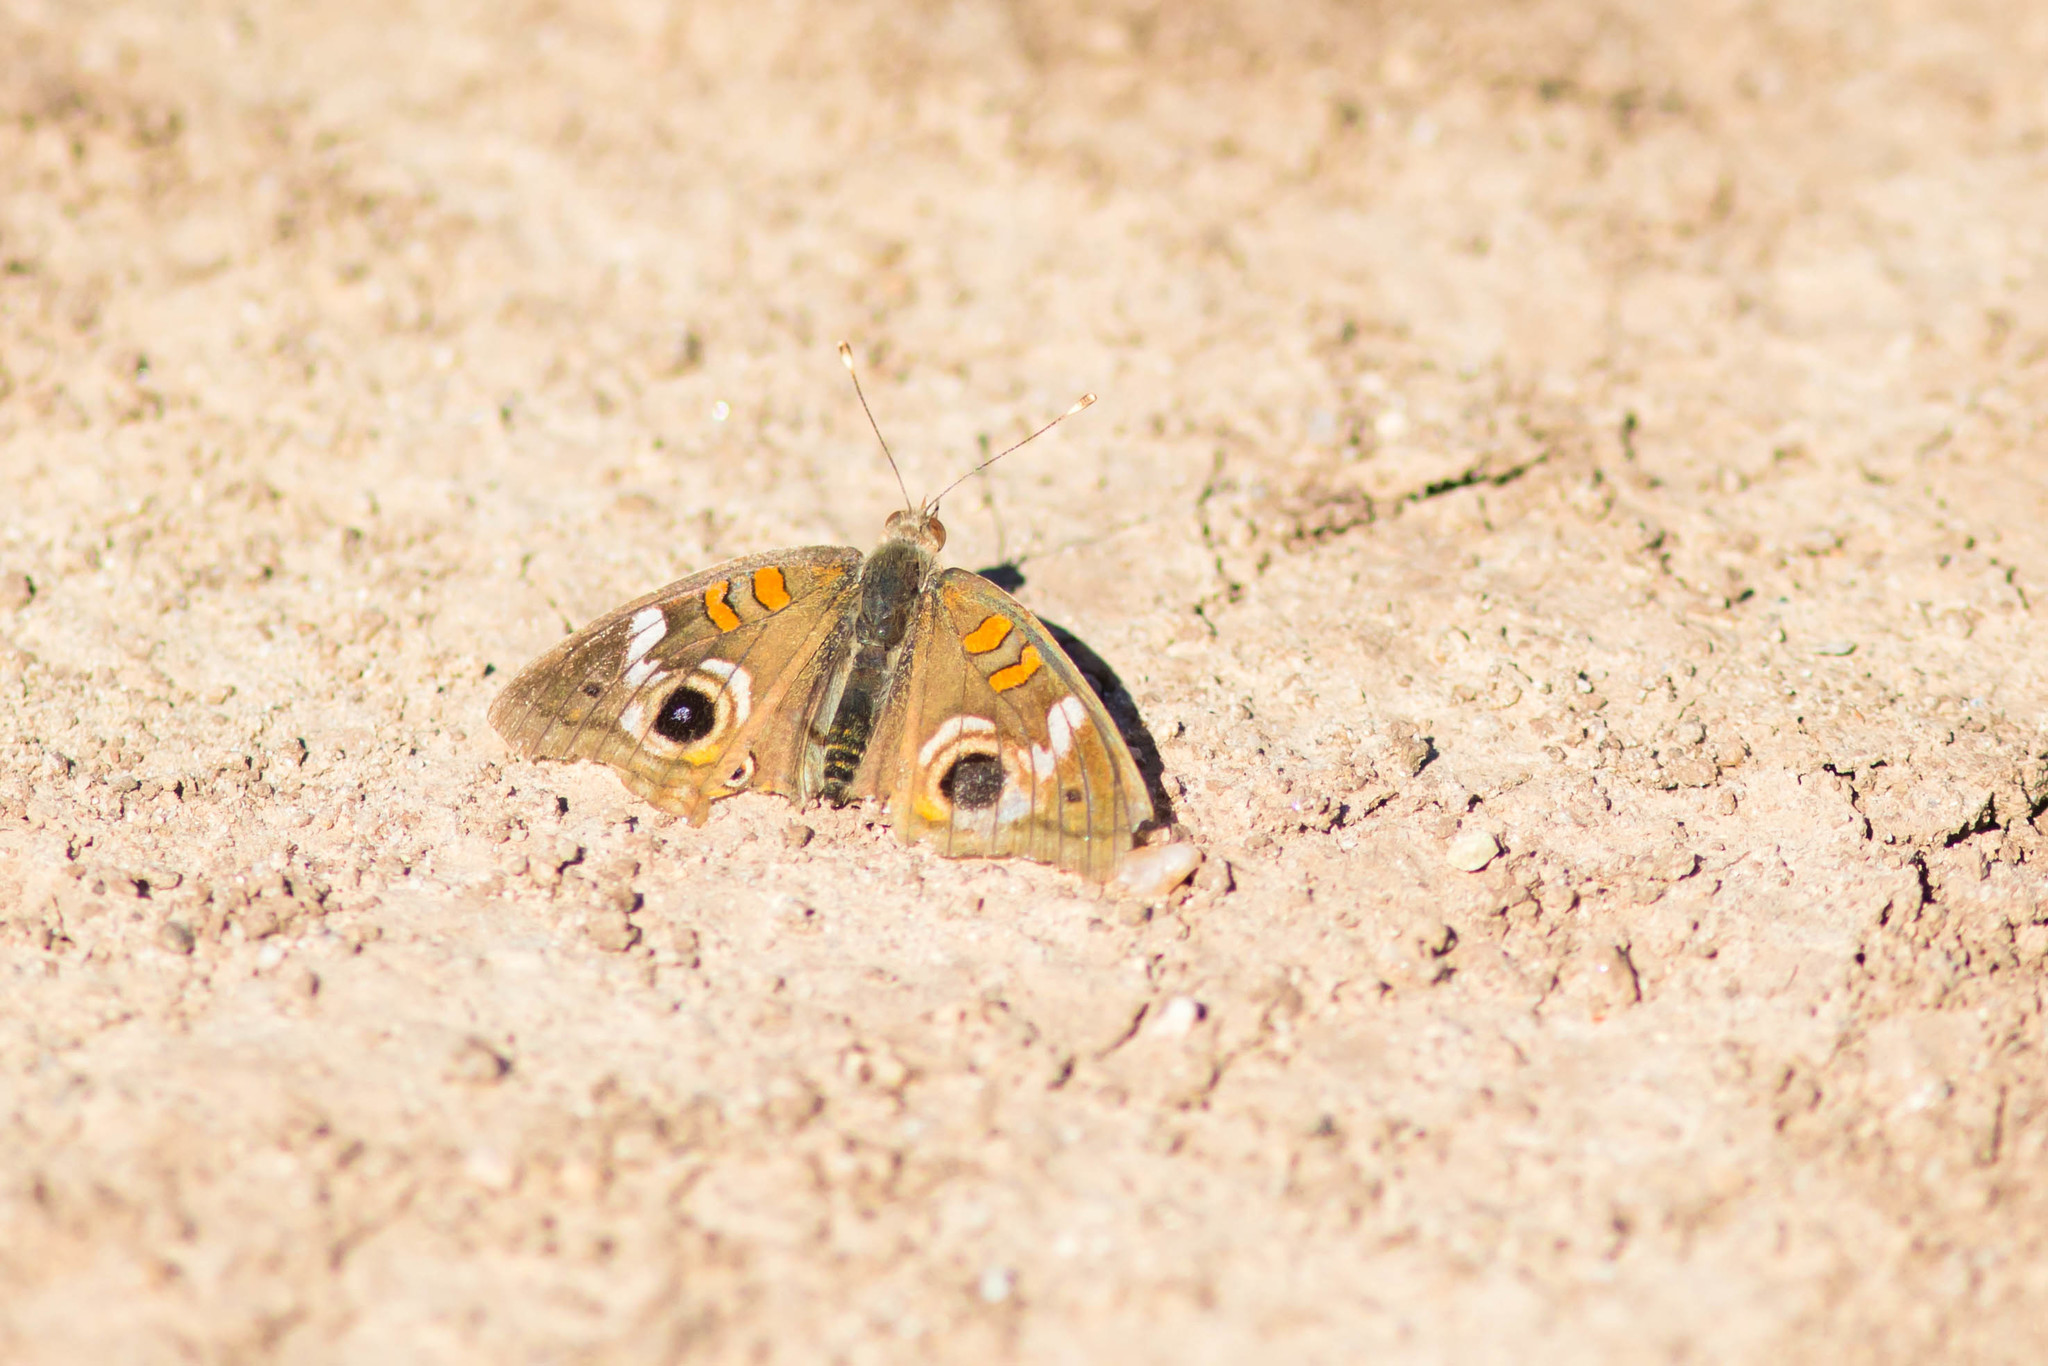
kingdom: Animalia
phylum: Arthropoda
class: Insecta
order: Lepidoptera
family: Nymphalidae
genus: Junonia
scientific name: Junonia grisea
